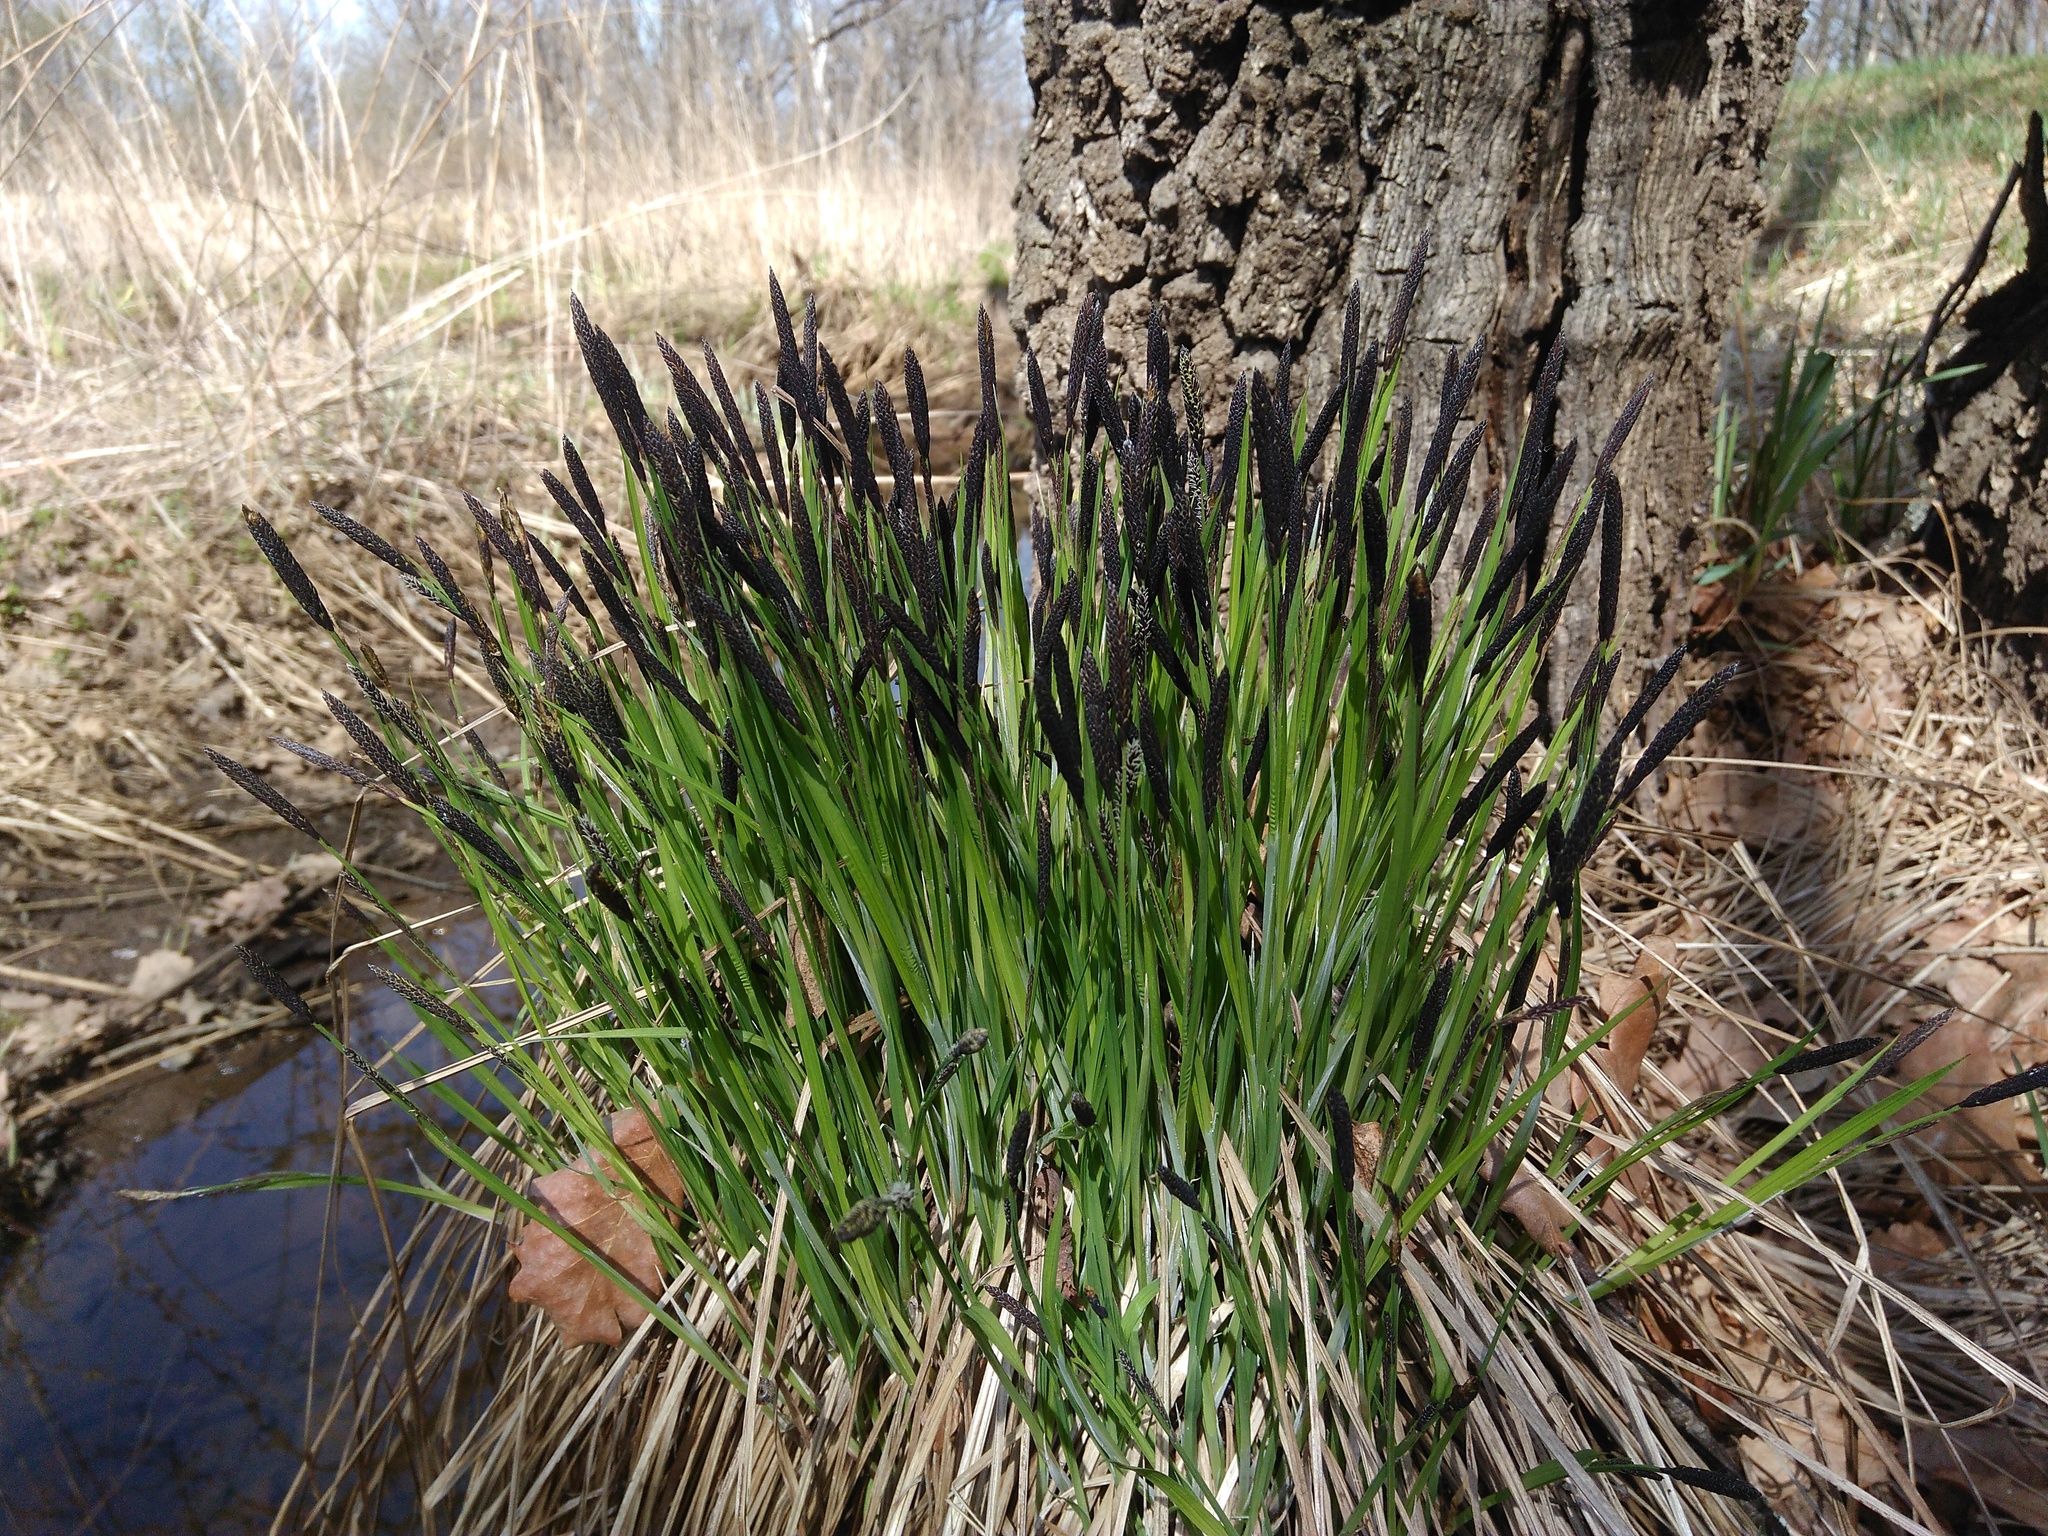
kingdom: Plantae
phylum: Tracheophyta
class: Liliopsida
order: Poales
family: Cyperaceae
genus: Carex
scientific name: Carex cespitosa
